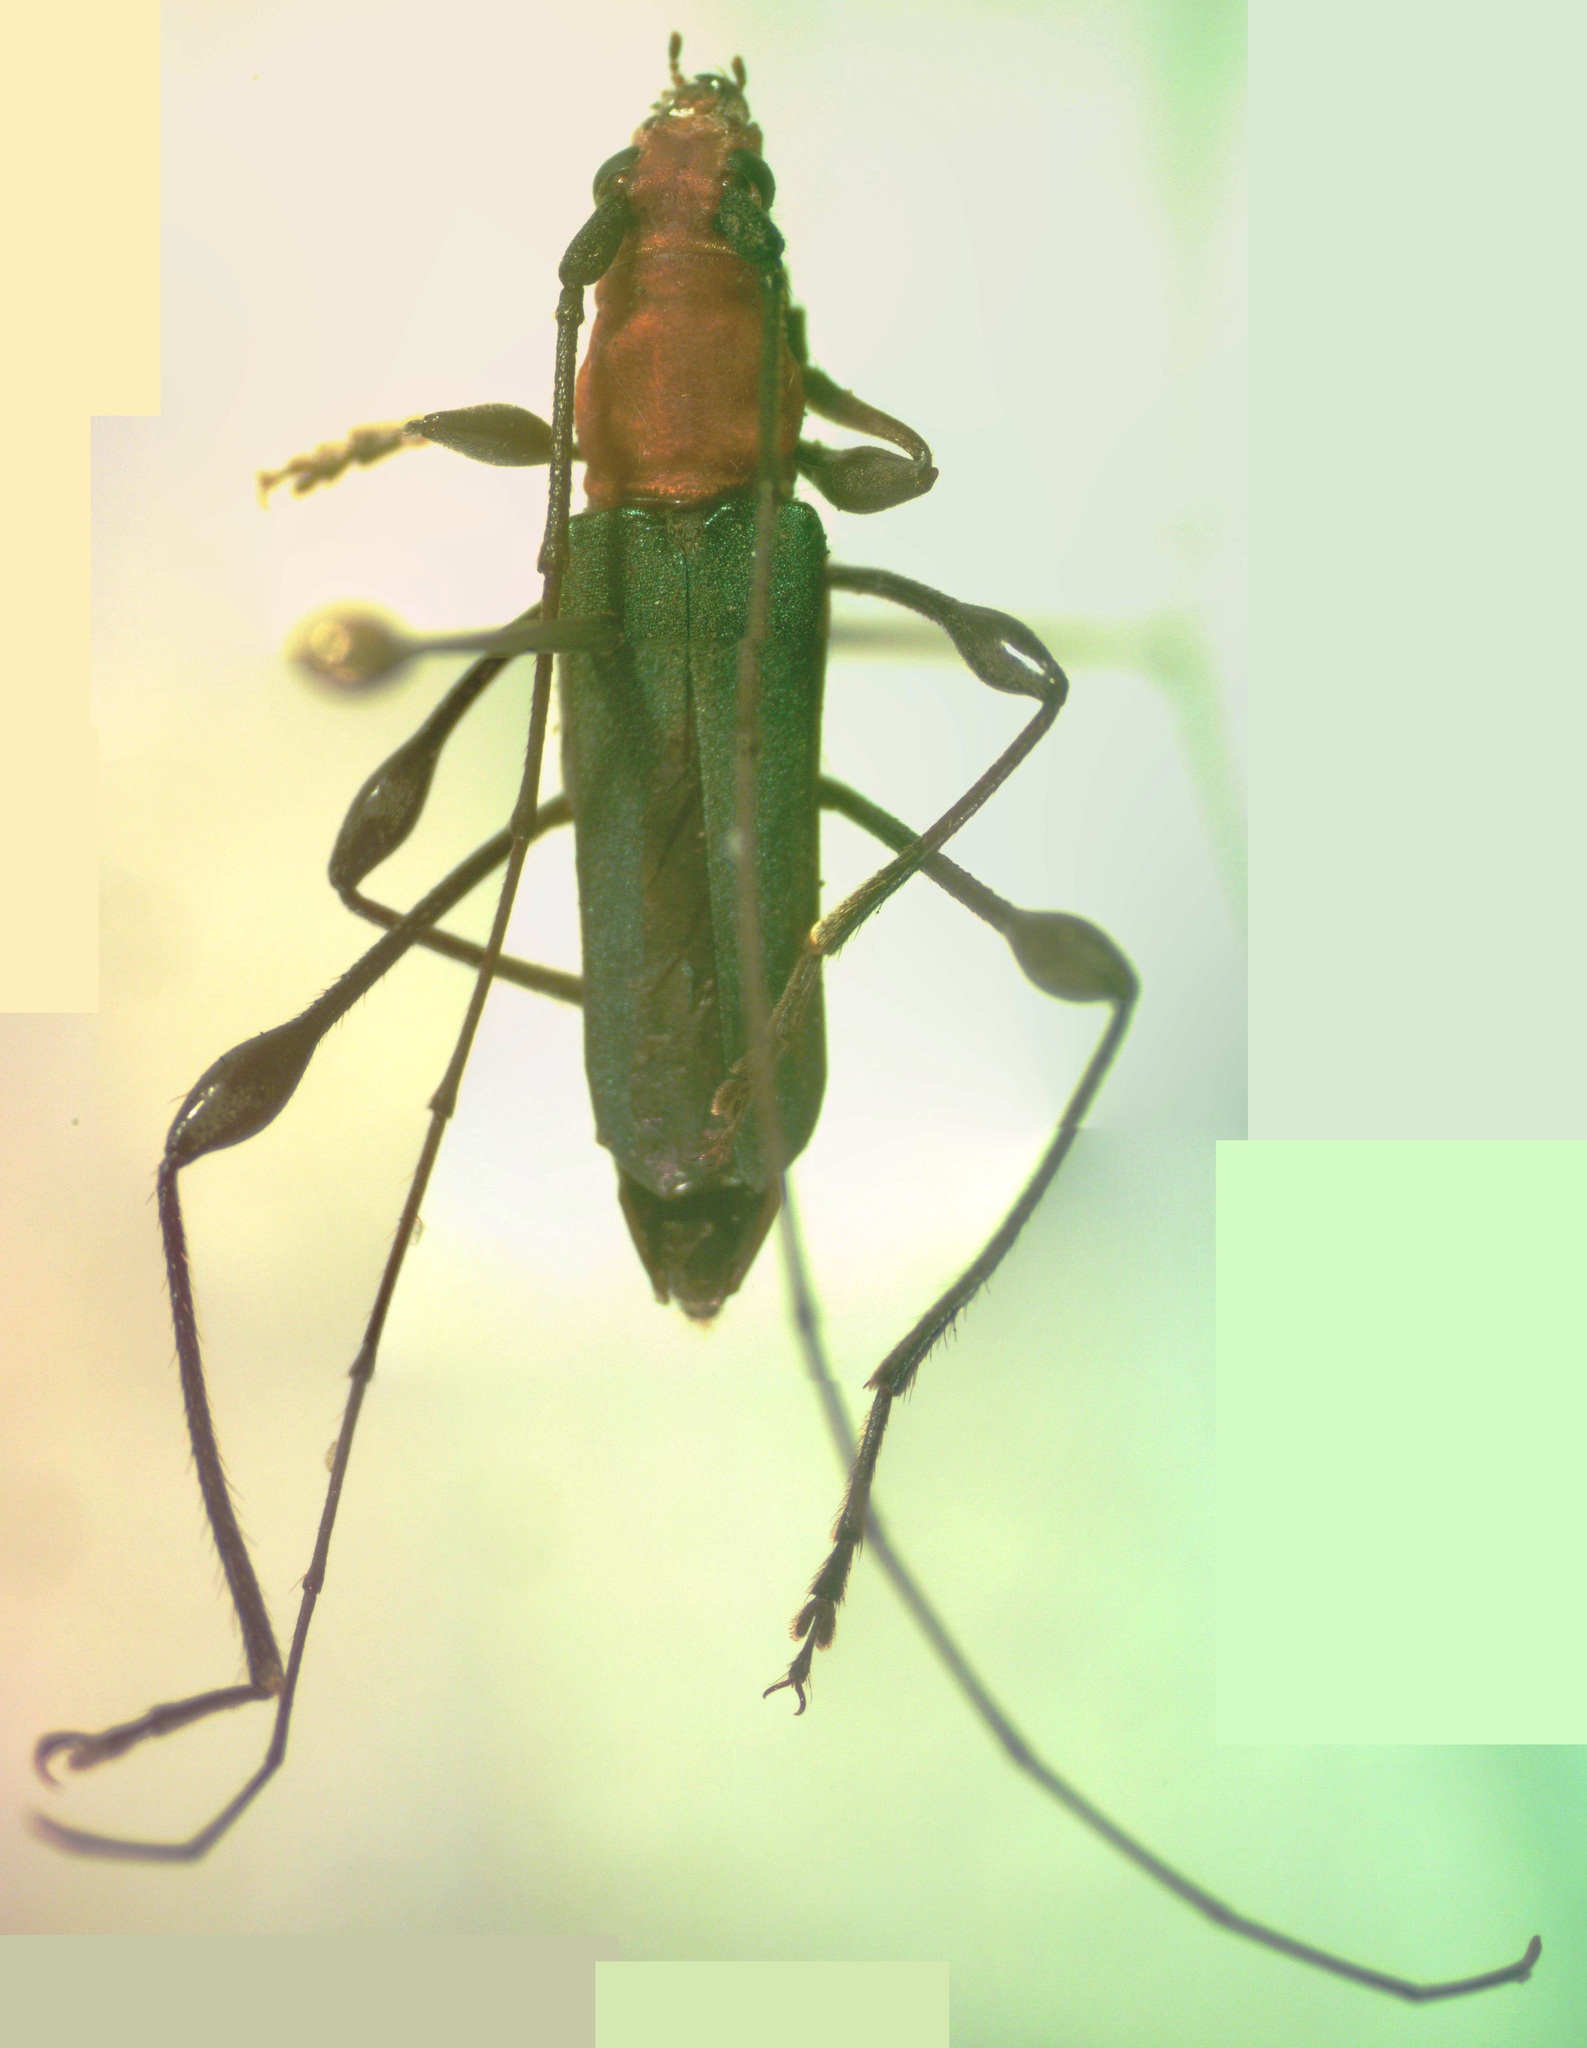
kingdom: Animalia
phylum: Arthropoda
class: Insecta
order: Coleoptera
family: Cerambycidae
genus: Ischionodonta
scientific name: Ischionodonta versicolor
